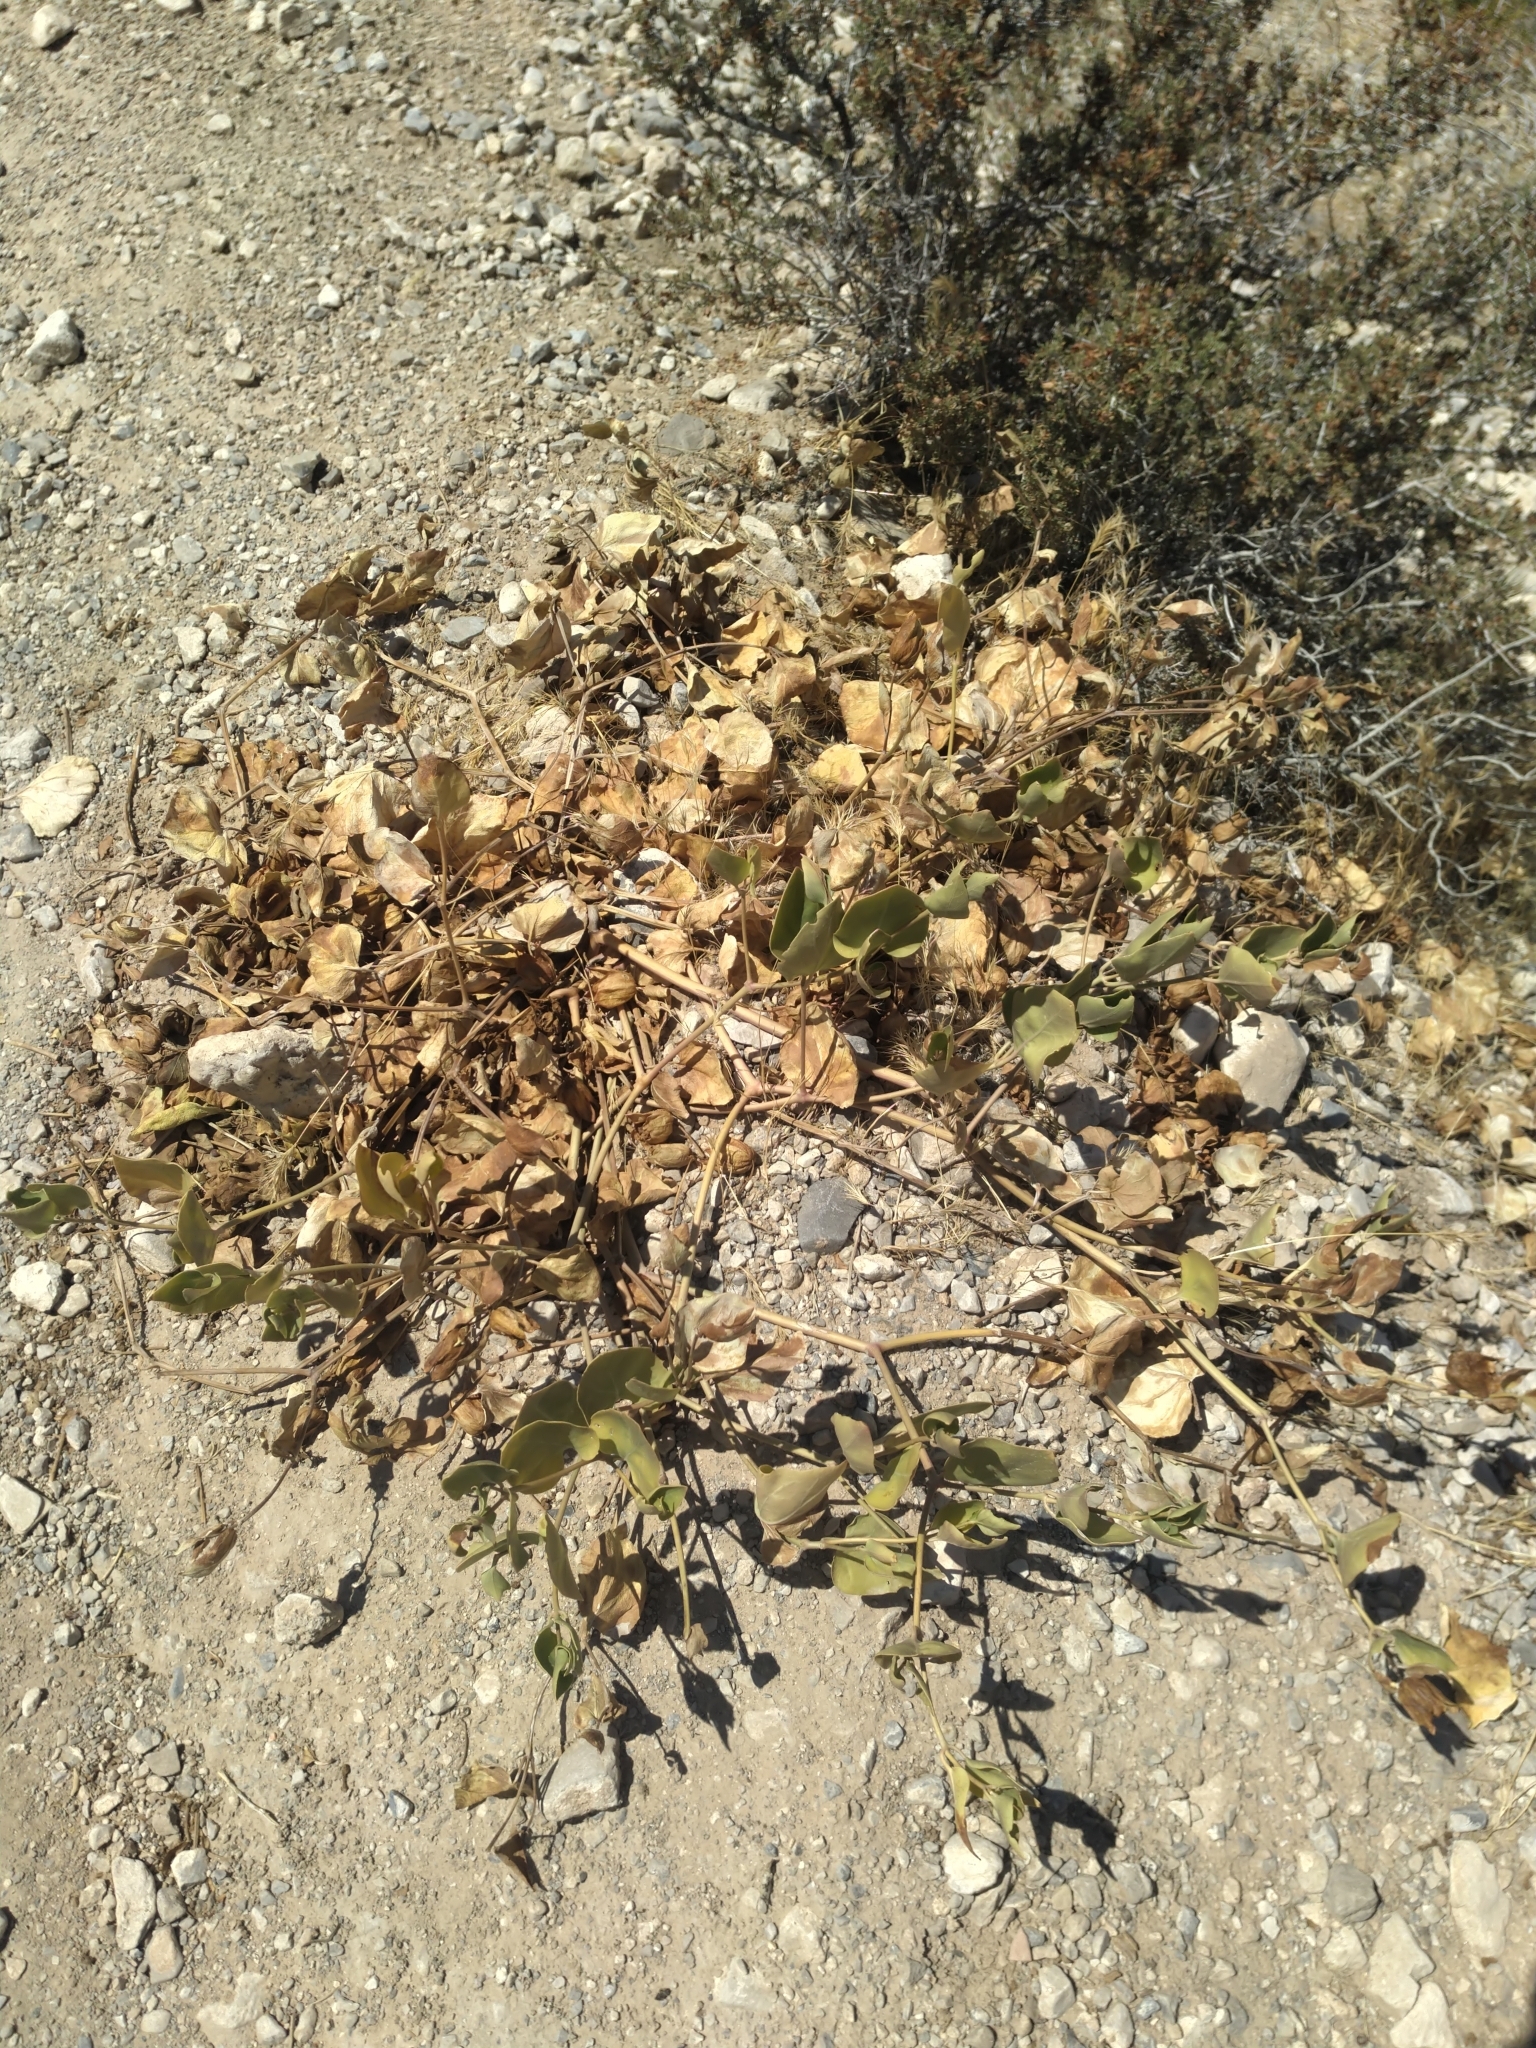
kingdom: Plantae
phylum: Tracheophyta
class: Magnoliopsida
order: Caryophyllales
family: Nyctaginaceae
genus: Mirabilis
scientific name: Mirabilis multiflora
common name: Froebel's four-o'clock
